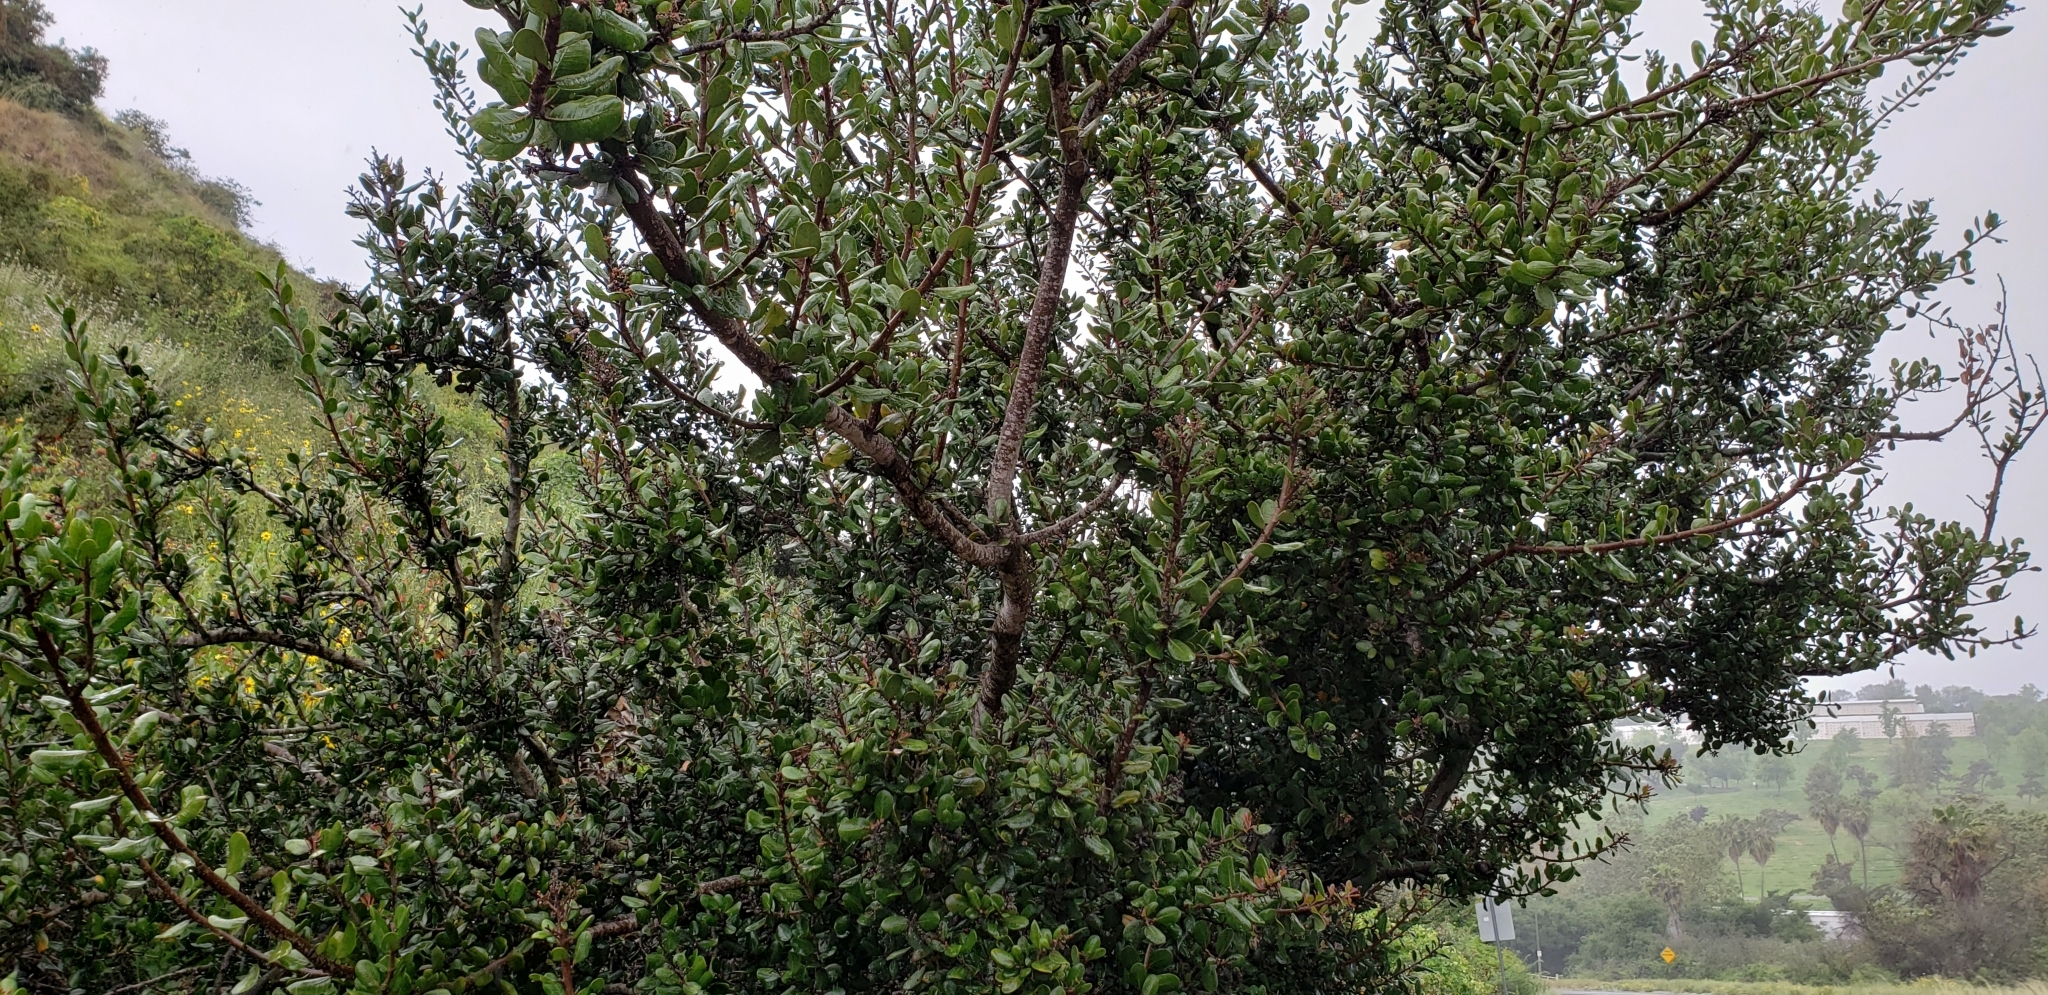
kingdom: Plantae
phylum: Tracheophyta
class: Magnoliopsida
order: Sapindales
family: Anacardiaceae
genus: Rhus
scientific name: Rhus integrifolia
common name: Lemonade sumac
